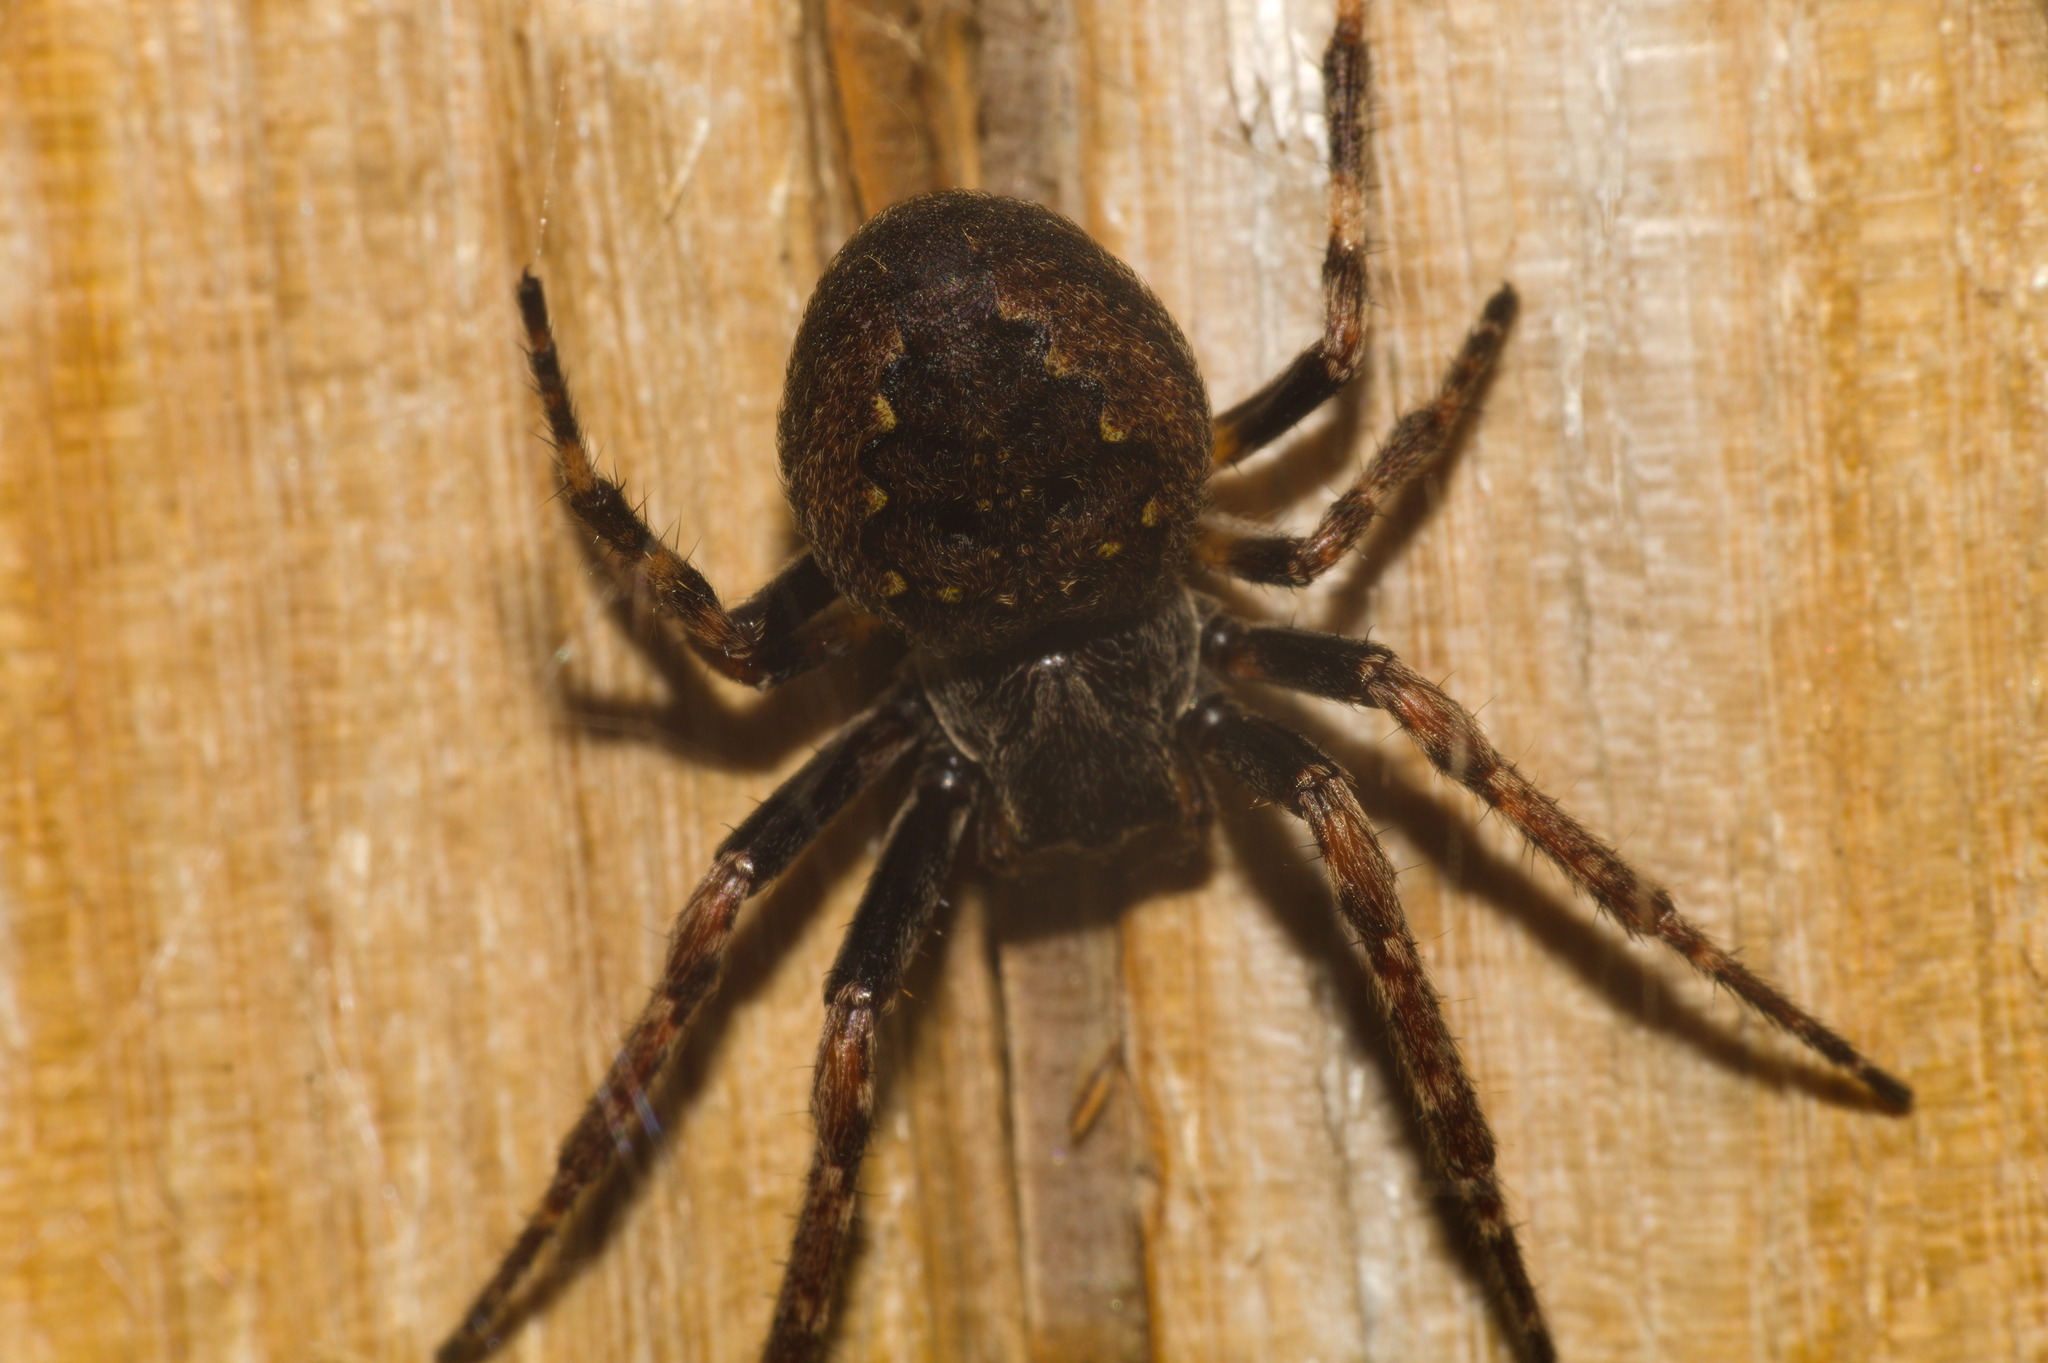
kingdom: Animalia
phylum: Arthropoda
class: Arachnida
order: Araneae
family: Araneidae
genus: Nuctenea
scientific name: Nuctenea umbratica
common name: Toad spider
